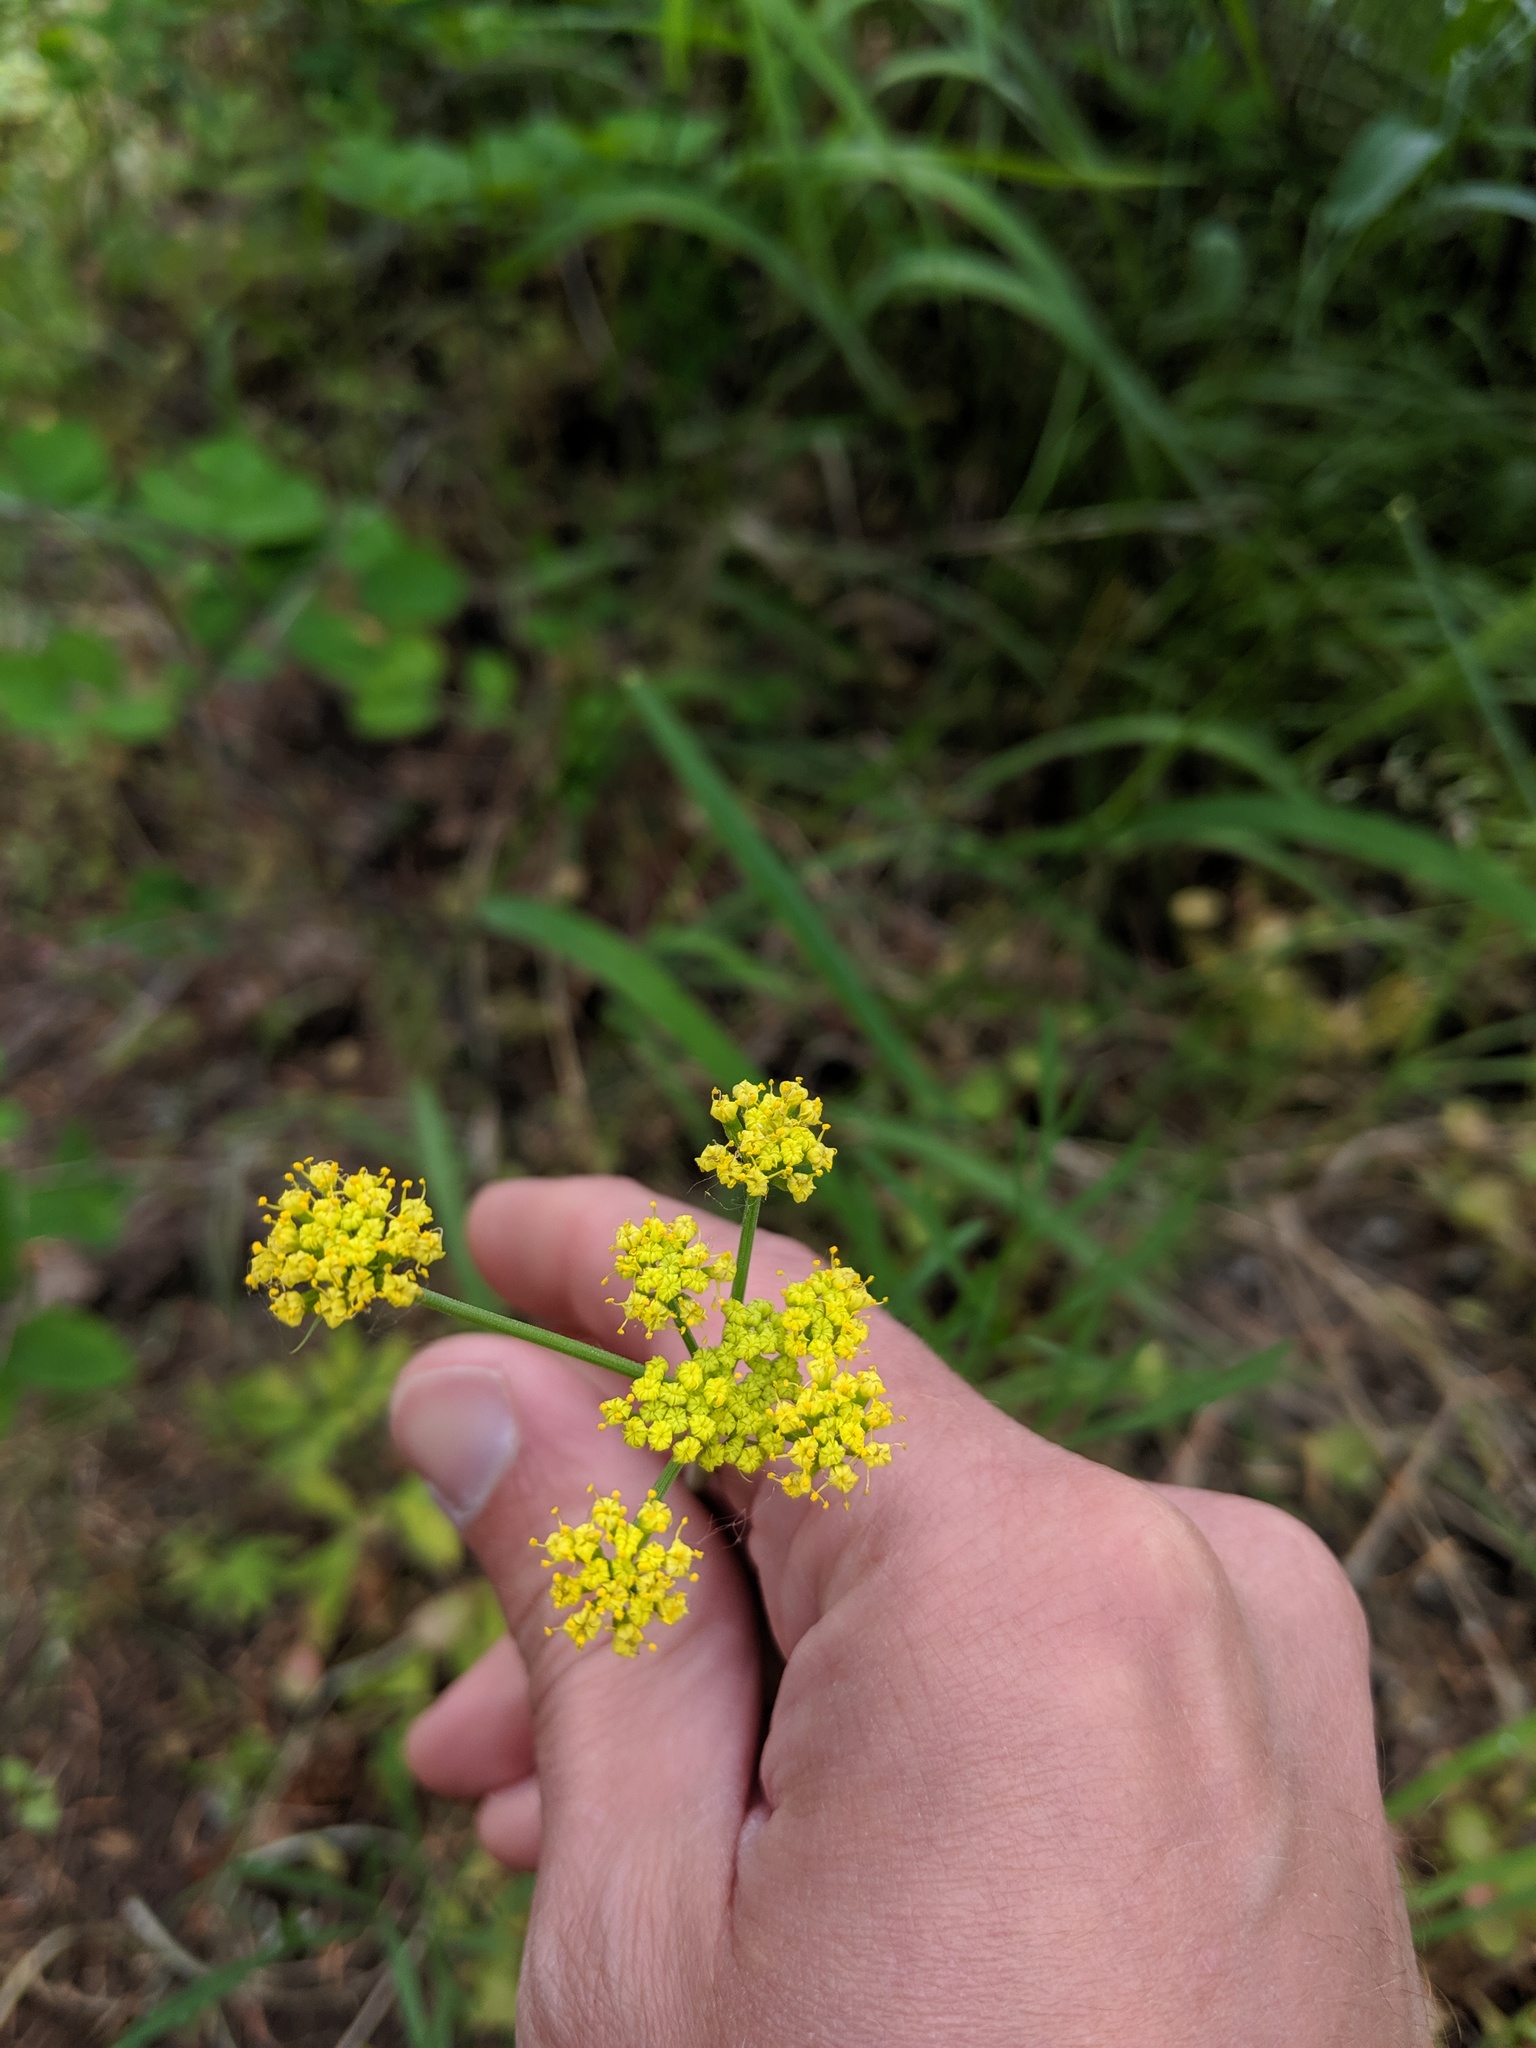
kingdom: Plantae
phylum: Tracheophyta
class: Magnoliopsida
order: Apiales
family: Apiaceae
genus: Lomatium
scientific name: Lomatium triternatum
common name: Ternate lomatium
